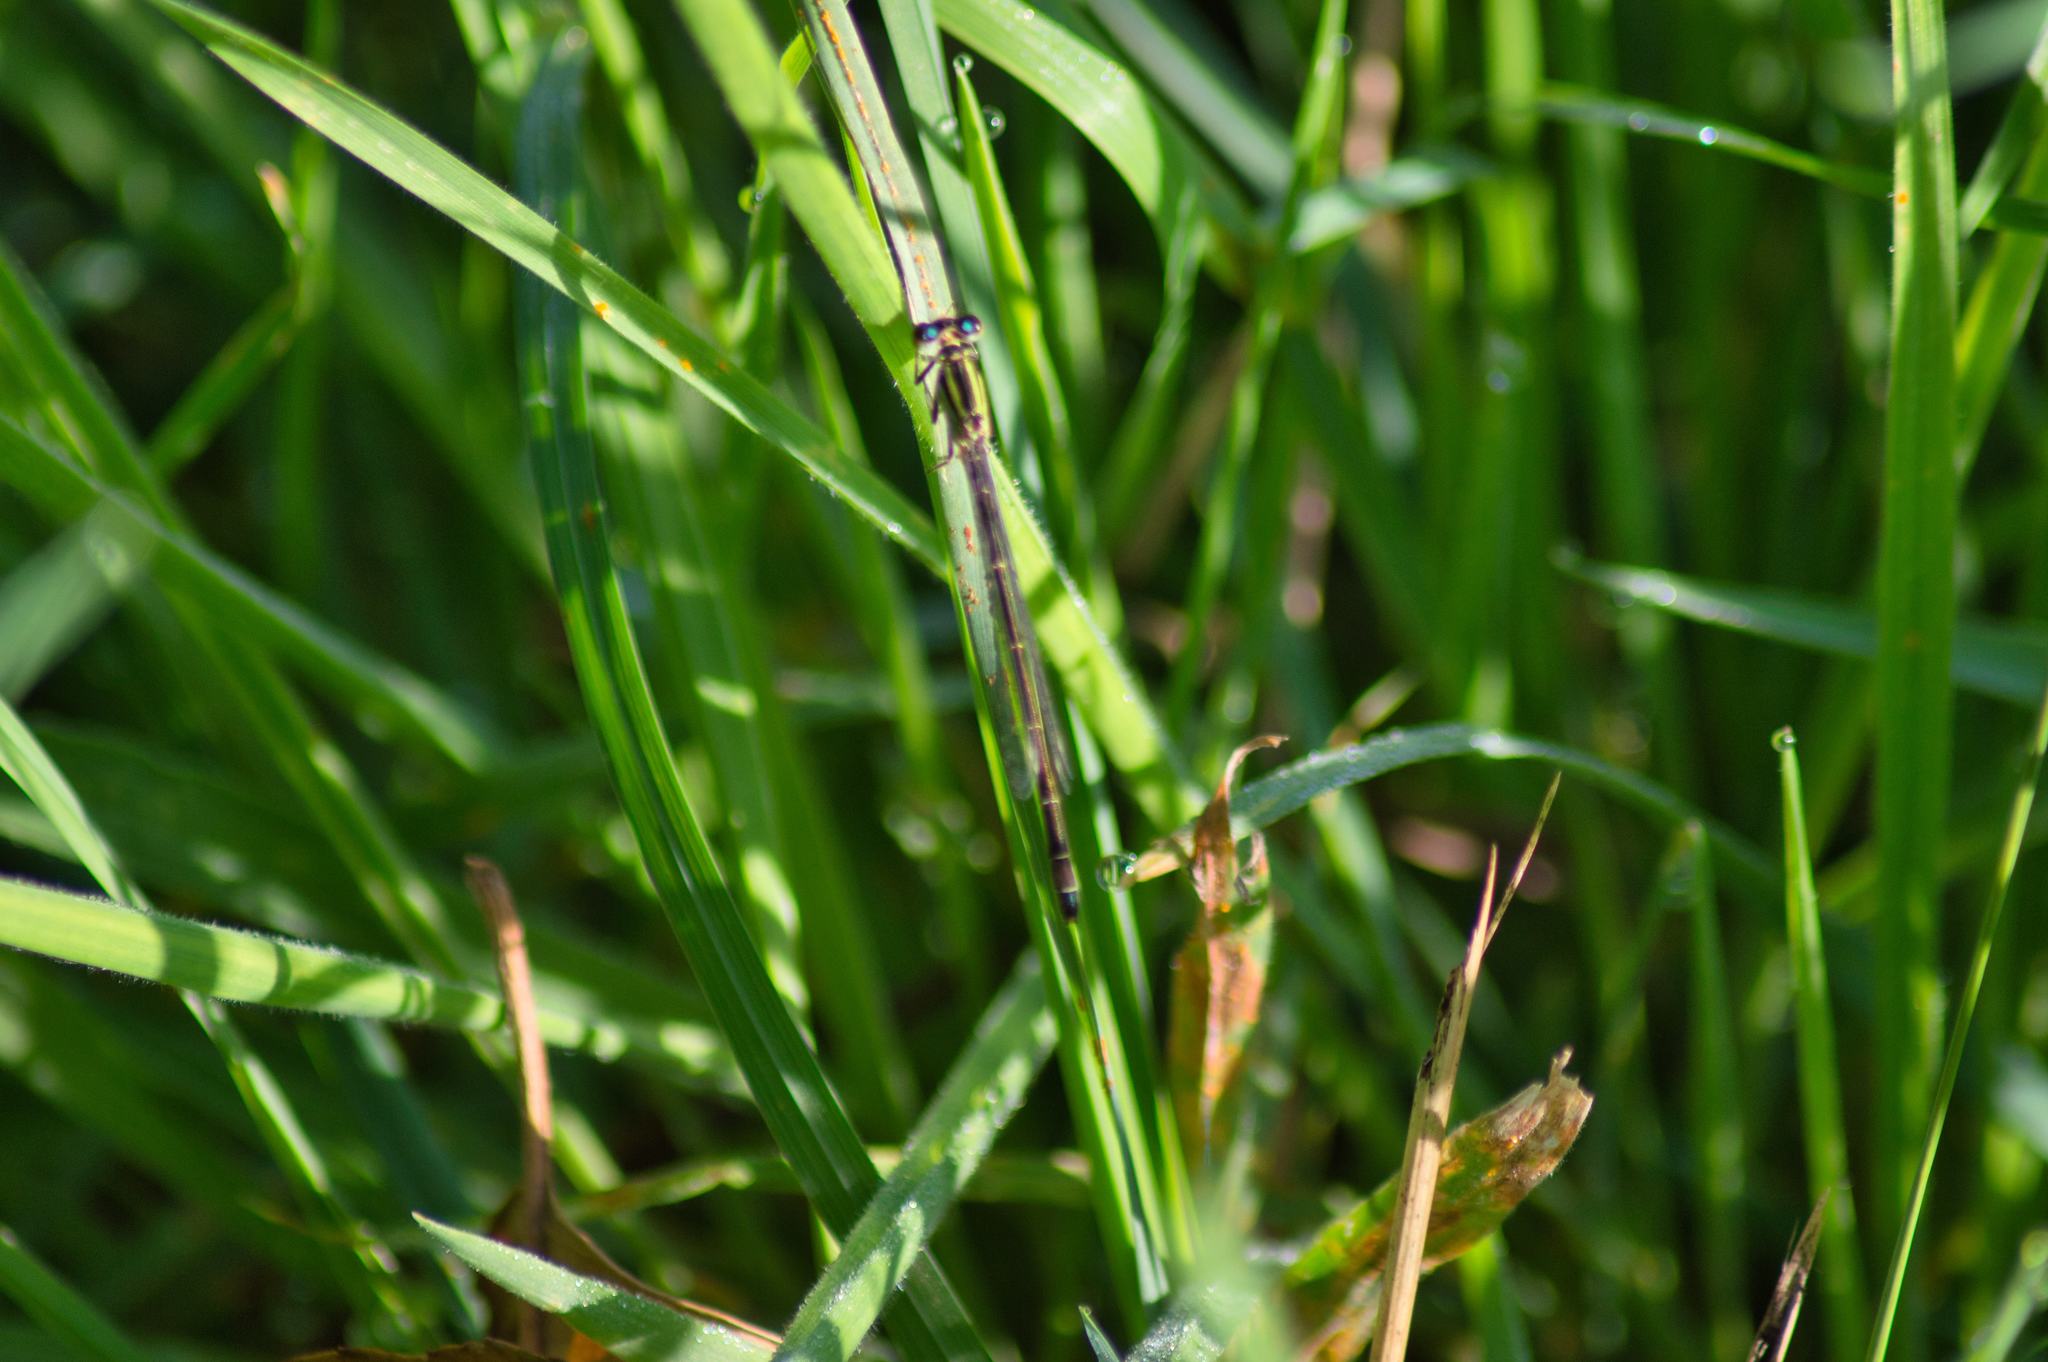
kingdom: Animalia
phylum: Arthropoda
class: Insecta
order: Odonata
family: Coenagrionidae
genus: Ischnura
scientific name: Ischnura elegans
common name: Blue-tailed damselfly
